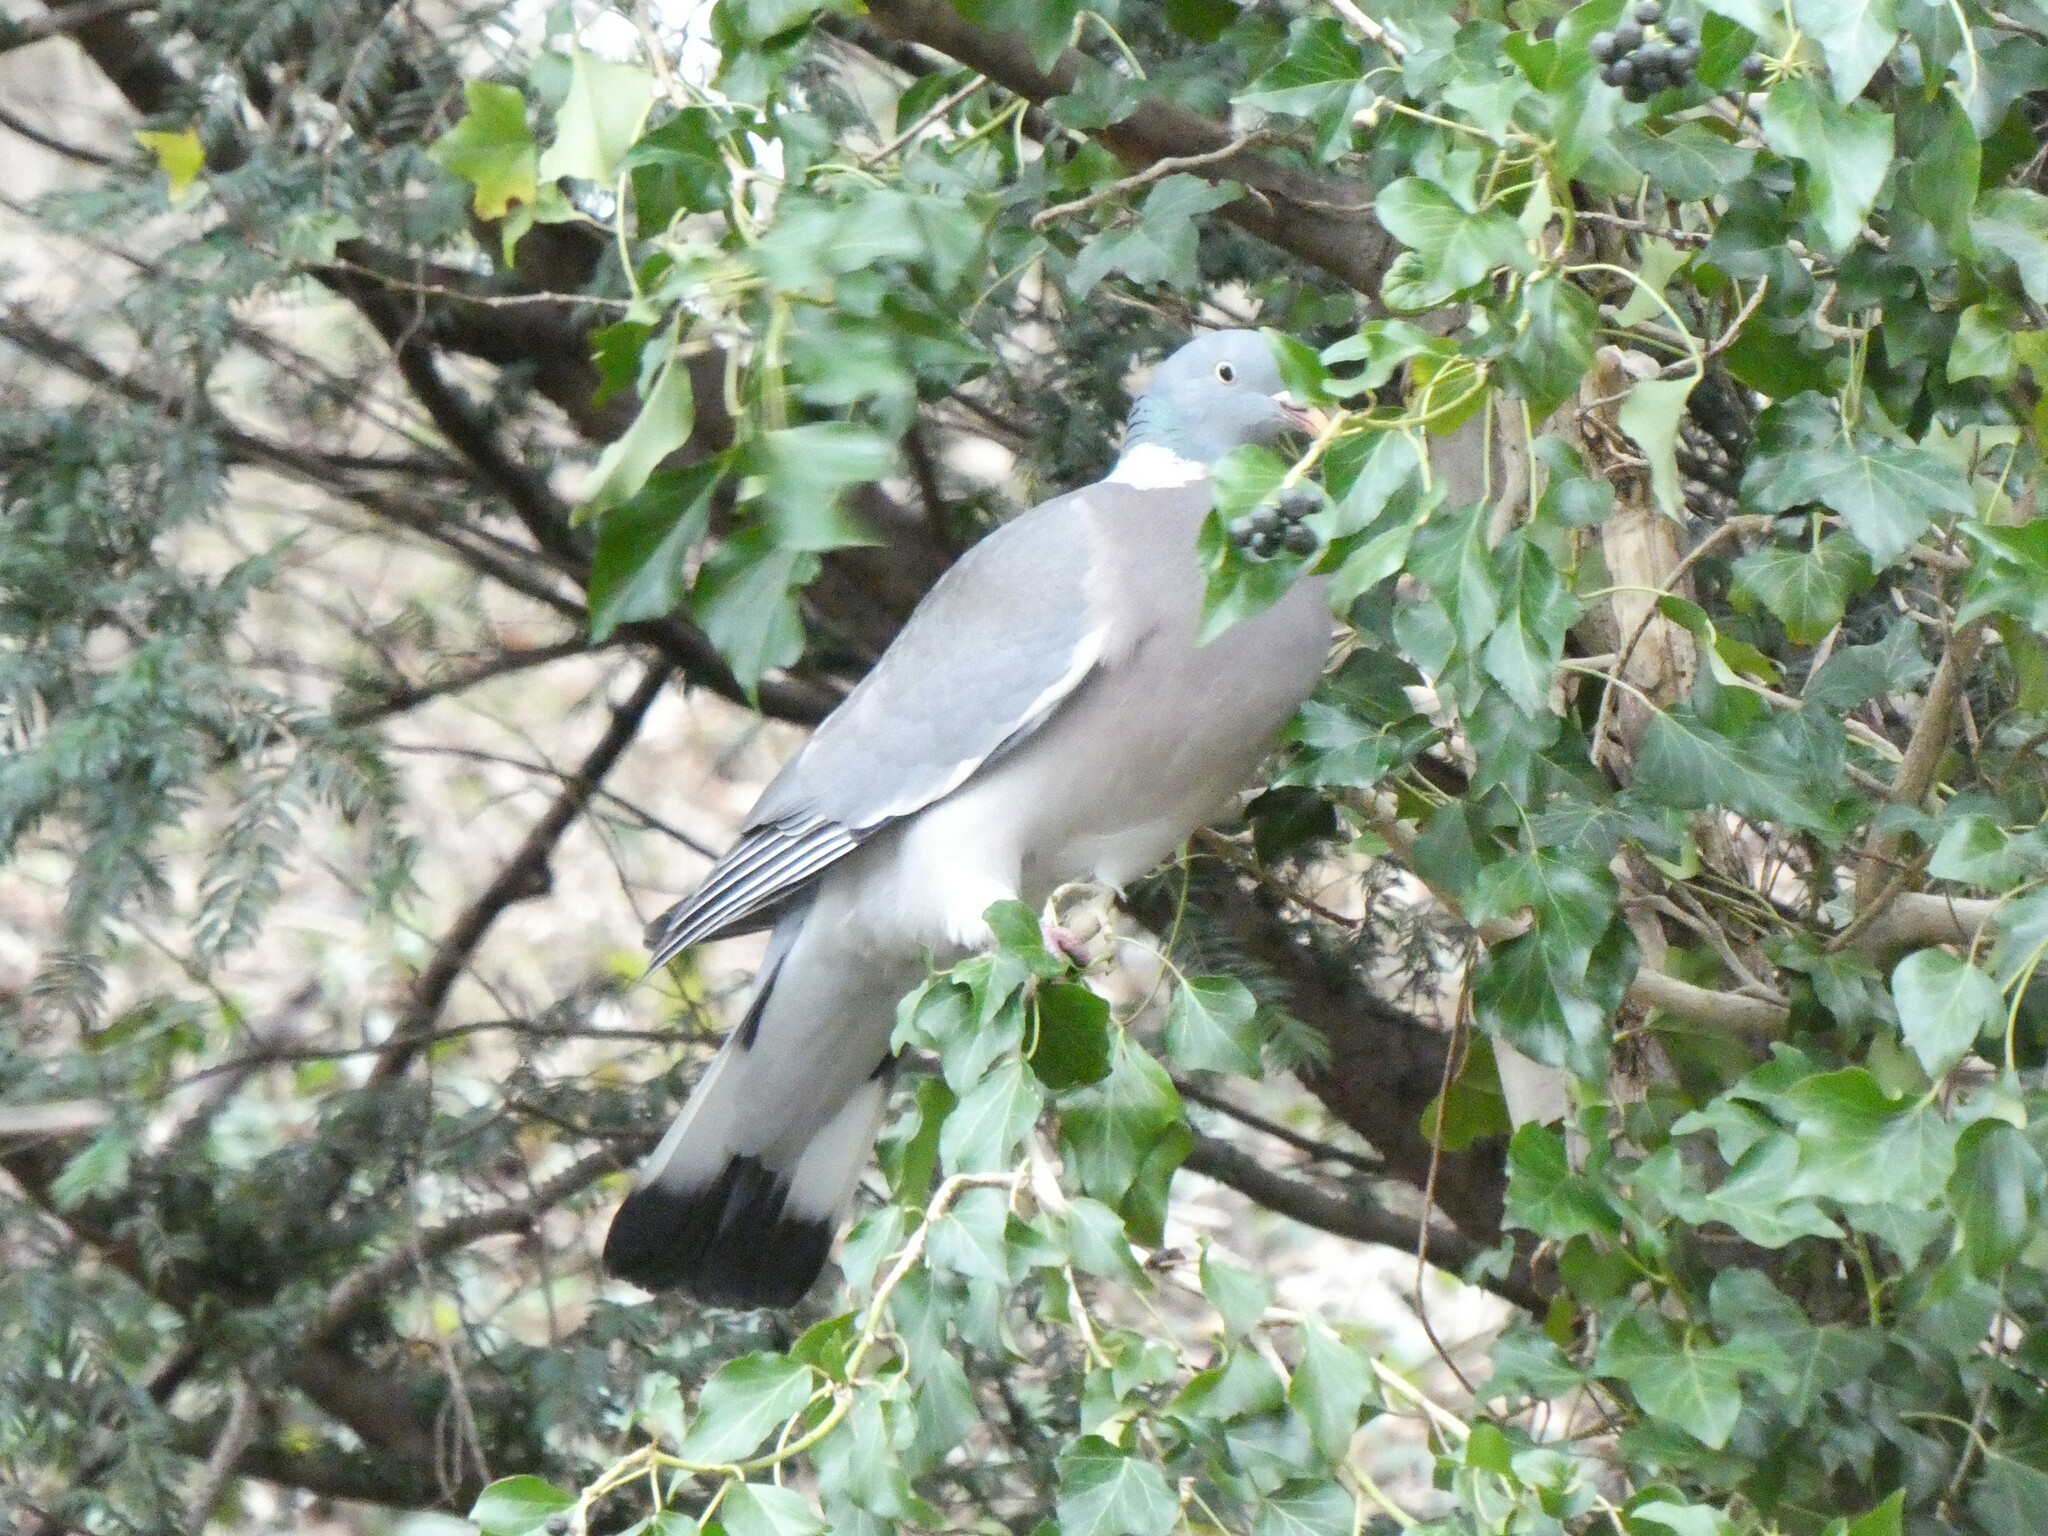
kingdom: Animalia
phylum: Chordata
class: Aves
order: Columbiformes
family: Columbidae
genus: Columba
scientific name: Columba palumbus
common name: Common wood pigeon
